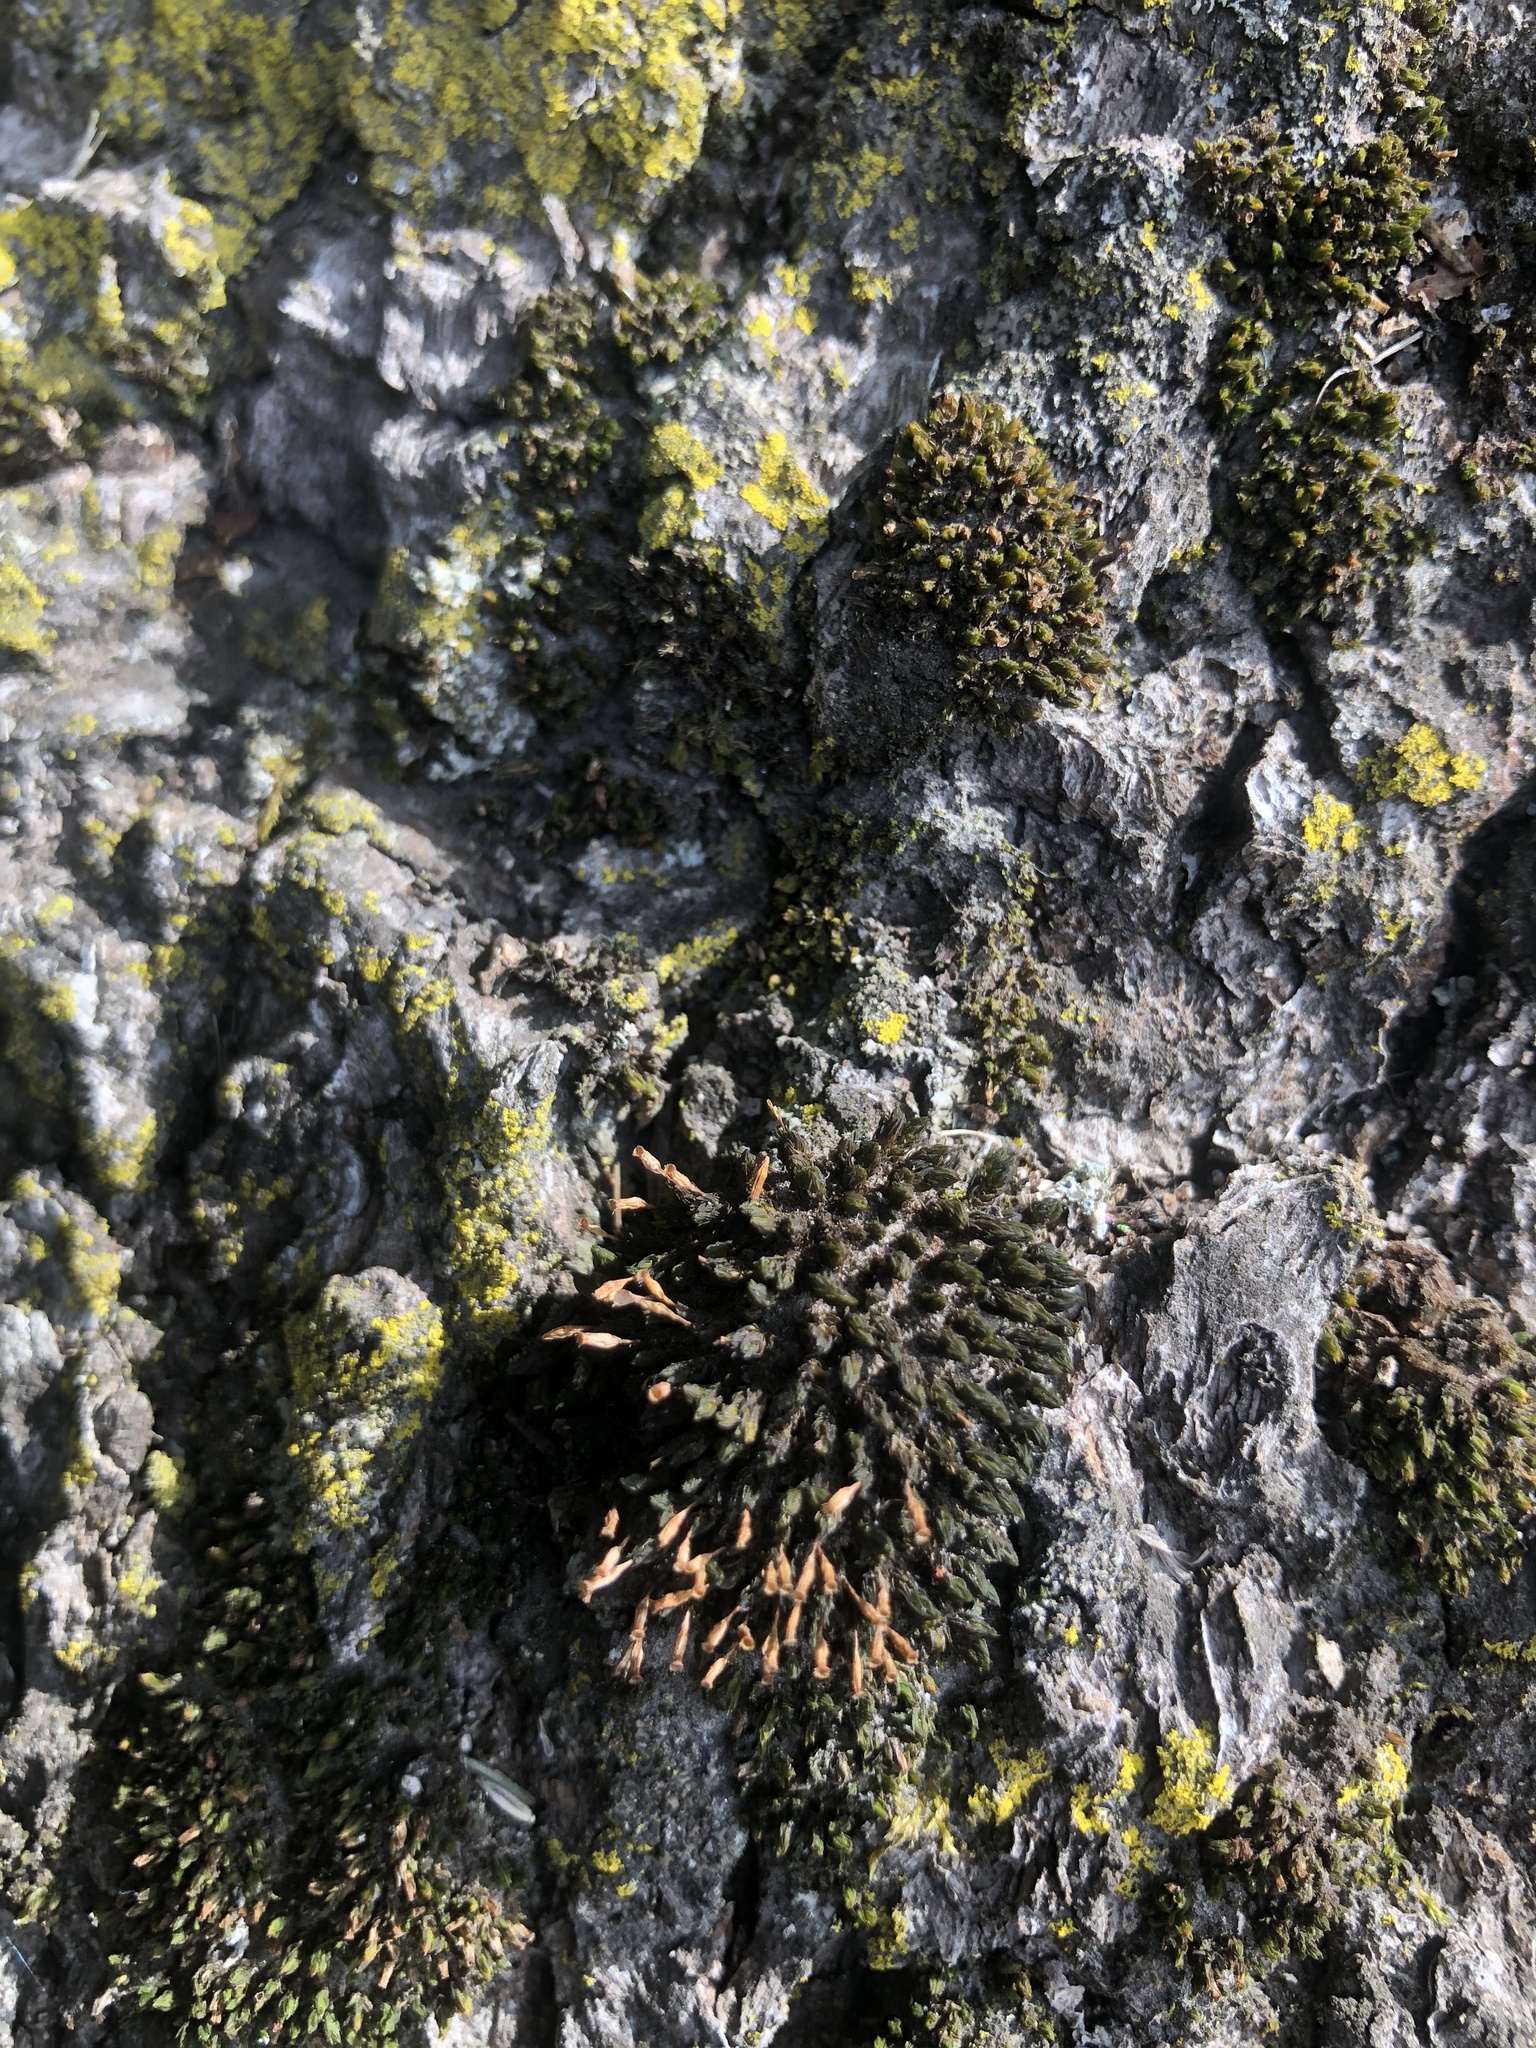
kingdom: Plantae
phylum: Bryophyta
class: Bryopsida
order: Orthotrichales
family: Orthotrichaceae
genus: Ulota
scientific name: Ulota crispa
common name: Crisped pincushion moss
